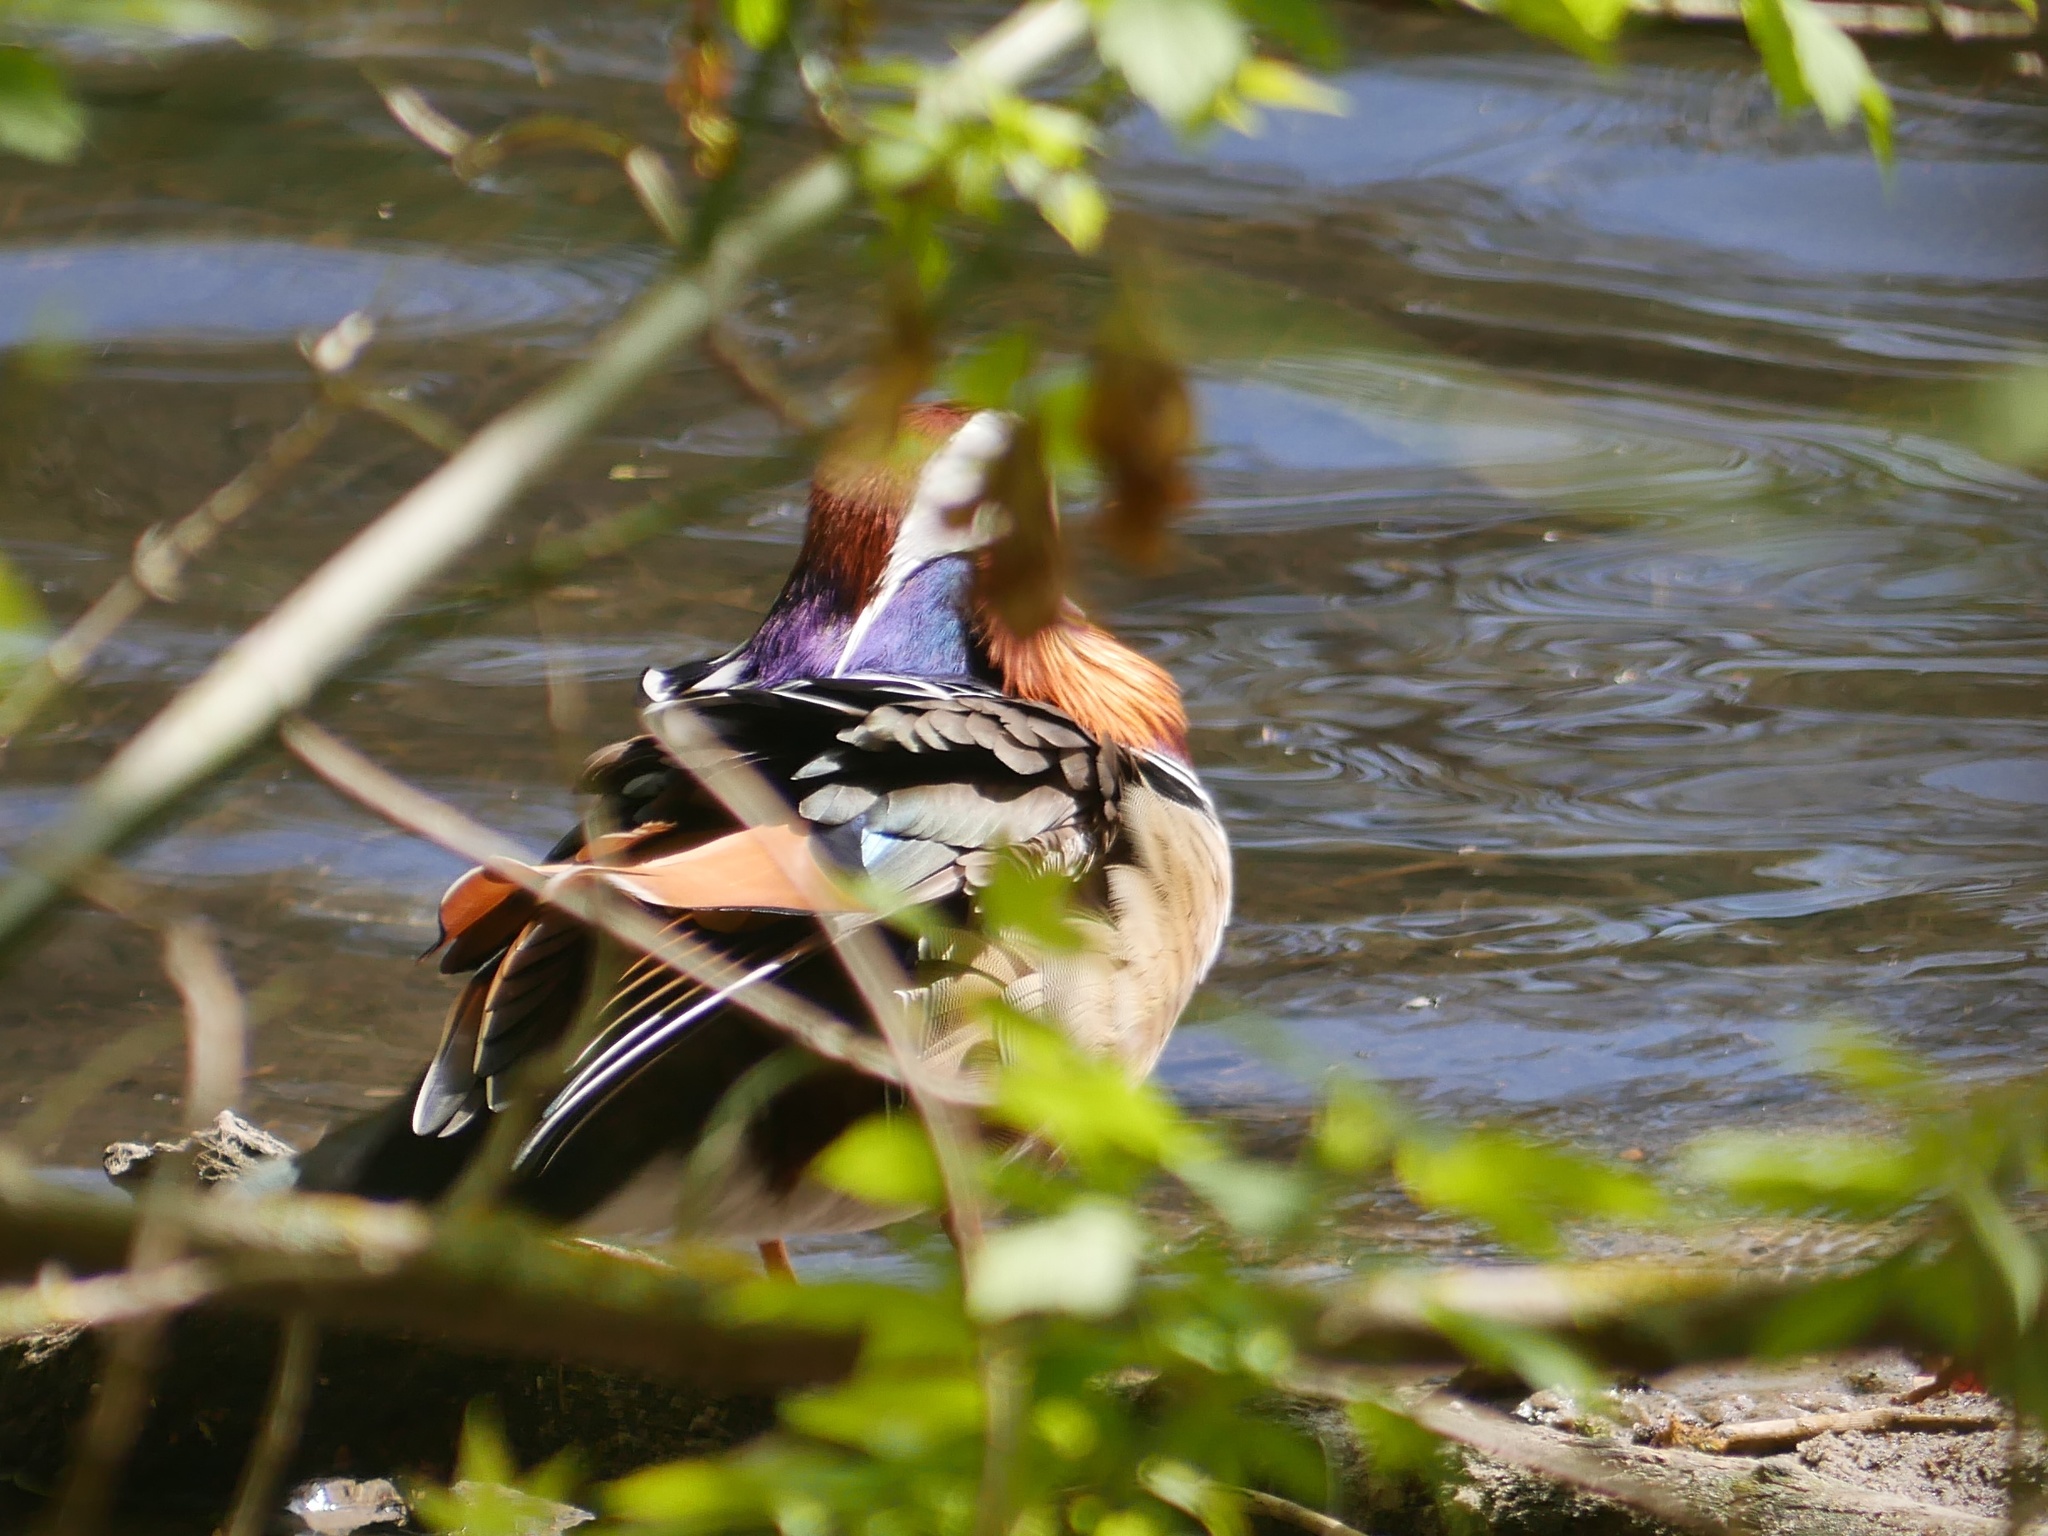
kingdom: Animalia
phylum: Chordata
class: Aves
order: Anseriformes
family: Anatidae
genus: Aix
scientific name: Aix galericulata
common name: Mandarin duck
